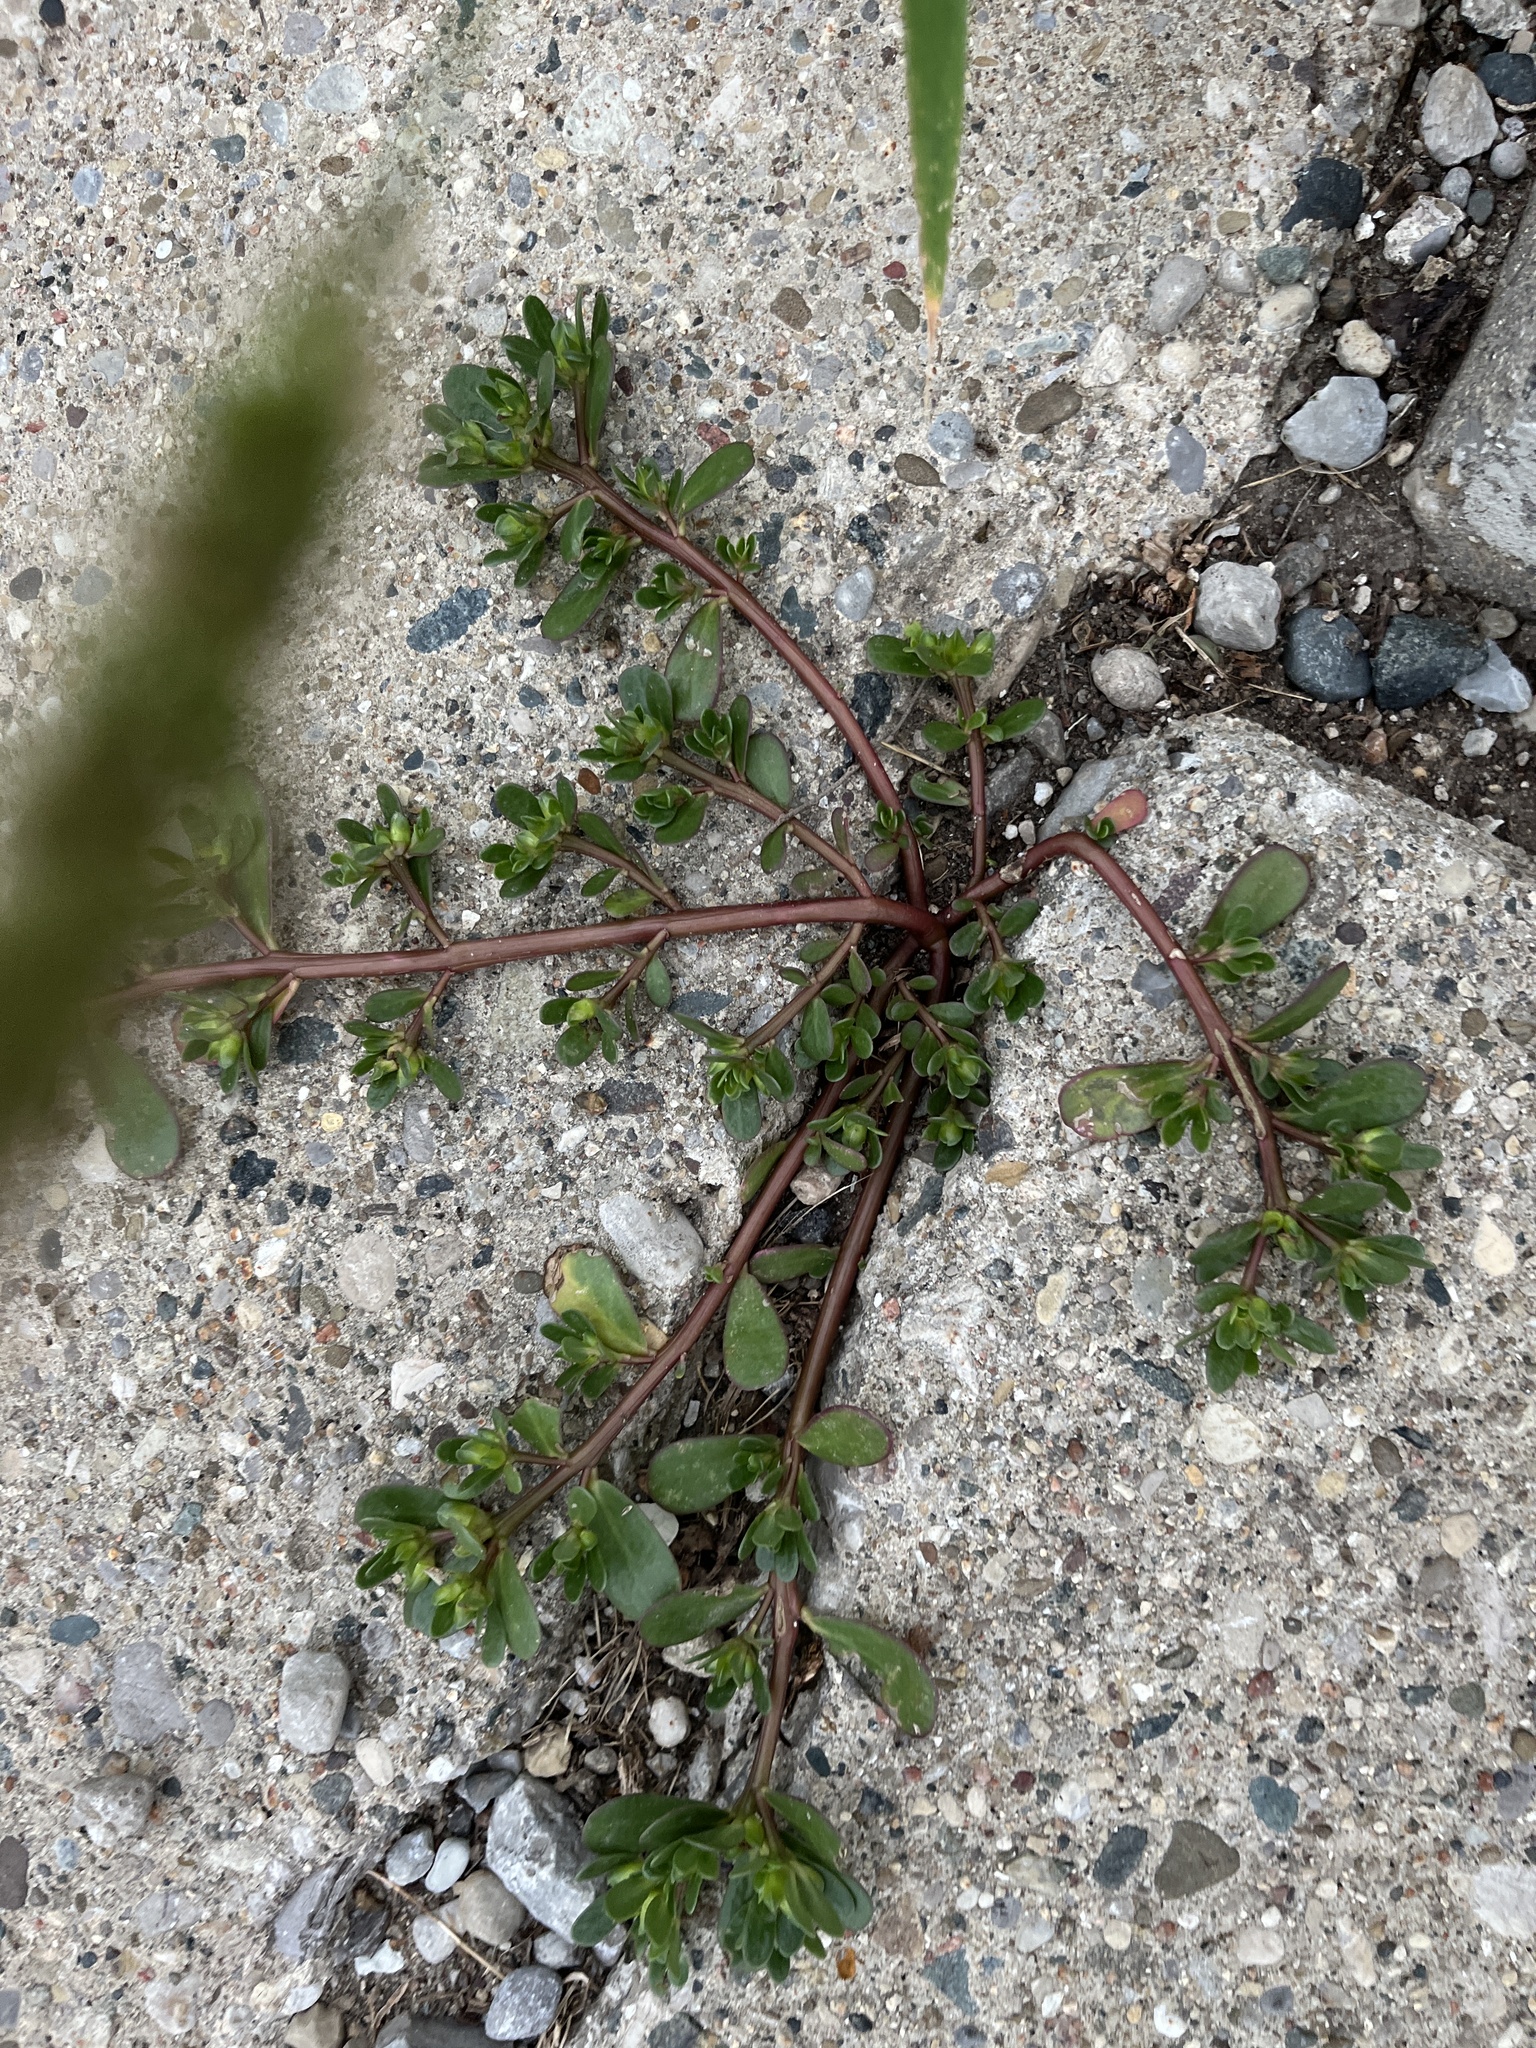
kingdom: Plantae
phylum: Tracheophyta
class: Magnoliopsida
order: Caryophyllales
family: Portulacaceae
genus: Portulaca
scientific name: Portulaca oleracea
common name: Common purslane
